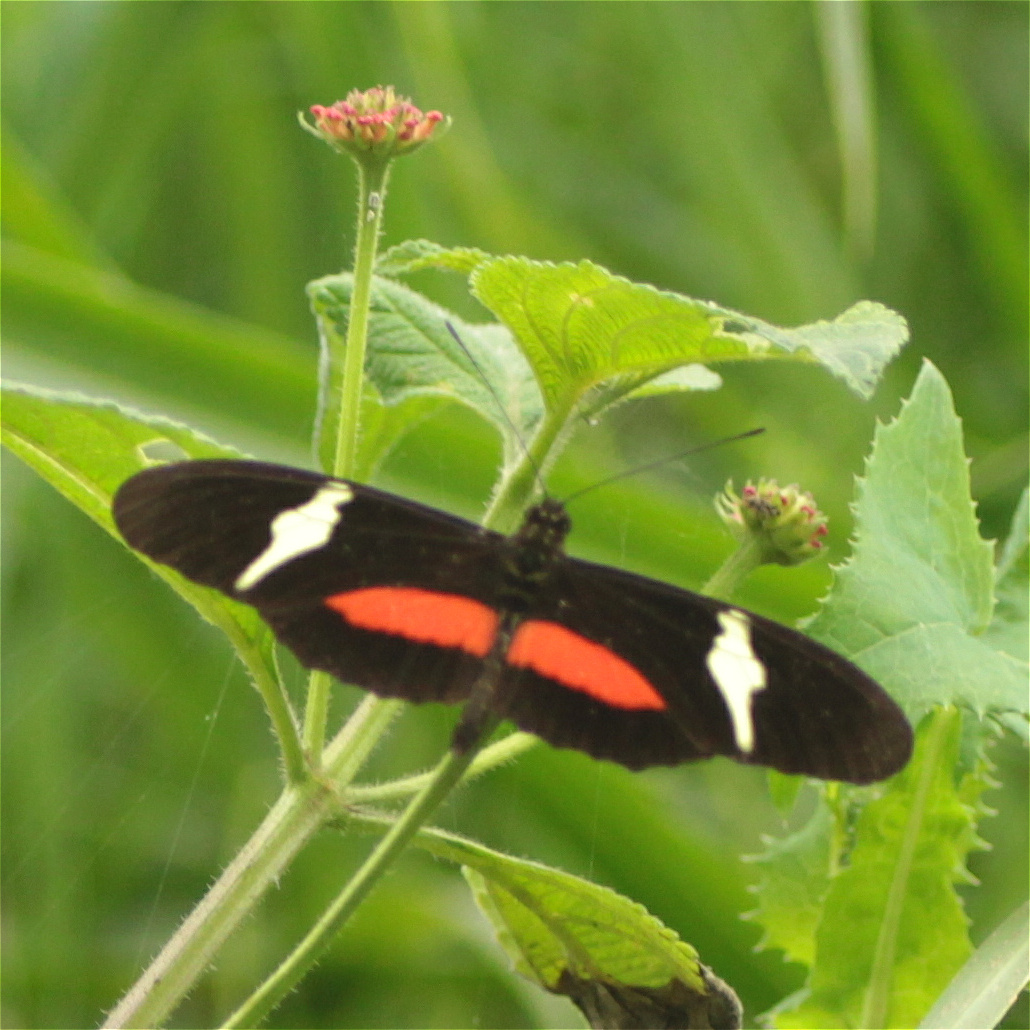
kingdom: Animalia
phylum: Arthropoda
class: Insecta
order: Lepidoptera
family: Nymphalidae
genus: Heliconius
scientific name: Heliconius clysonymus
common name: Clysonymus longwing
